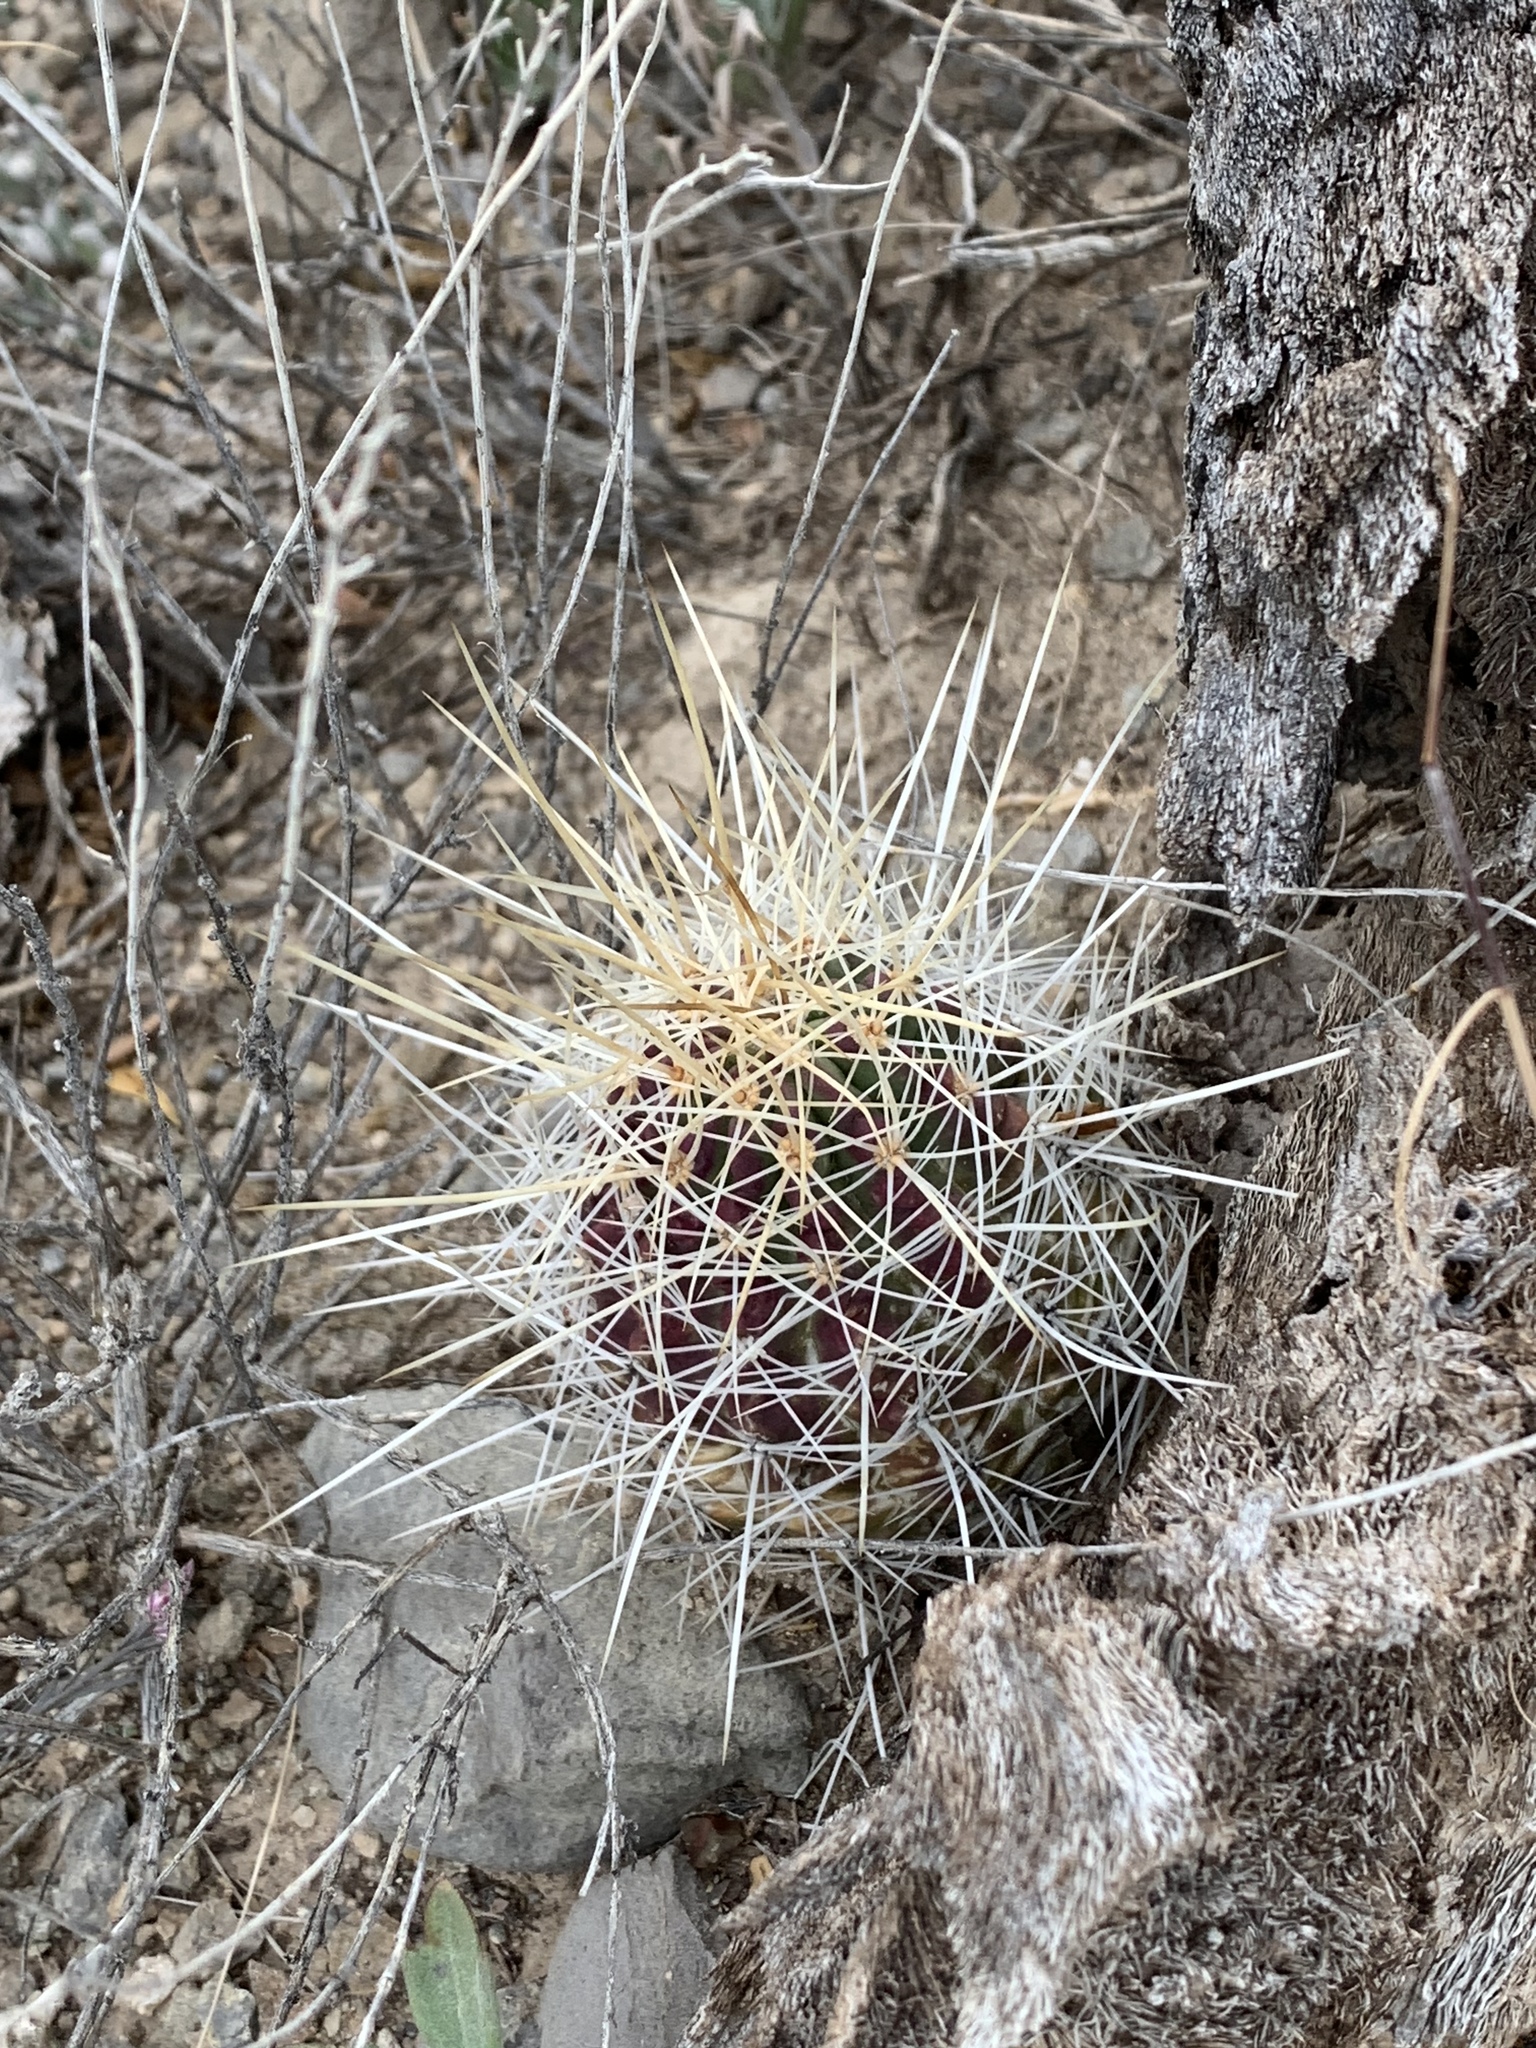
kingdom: Plantae
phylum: Tracheophyta
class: Magnoliopsida
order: Caryophyllales
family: Cactaceae
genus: Echinocereus
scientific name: Echinocereus stramineus
